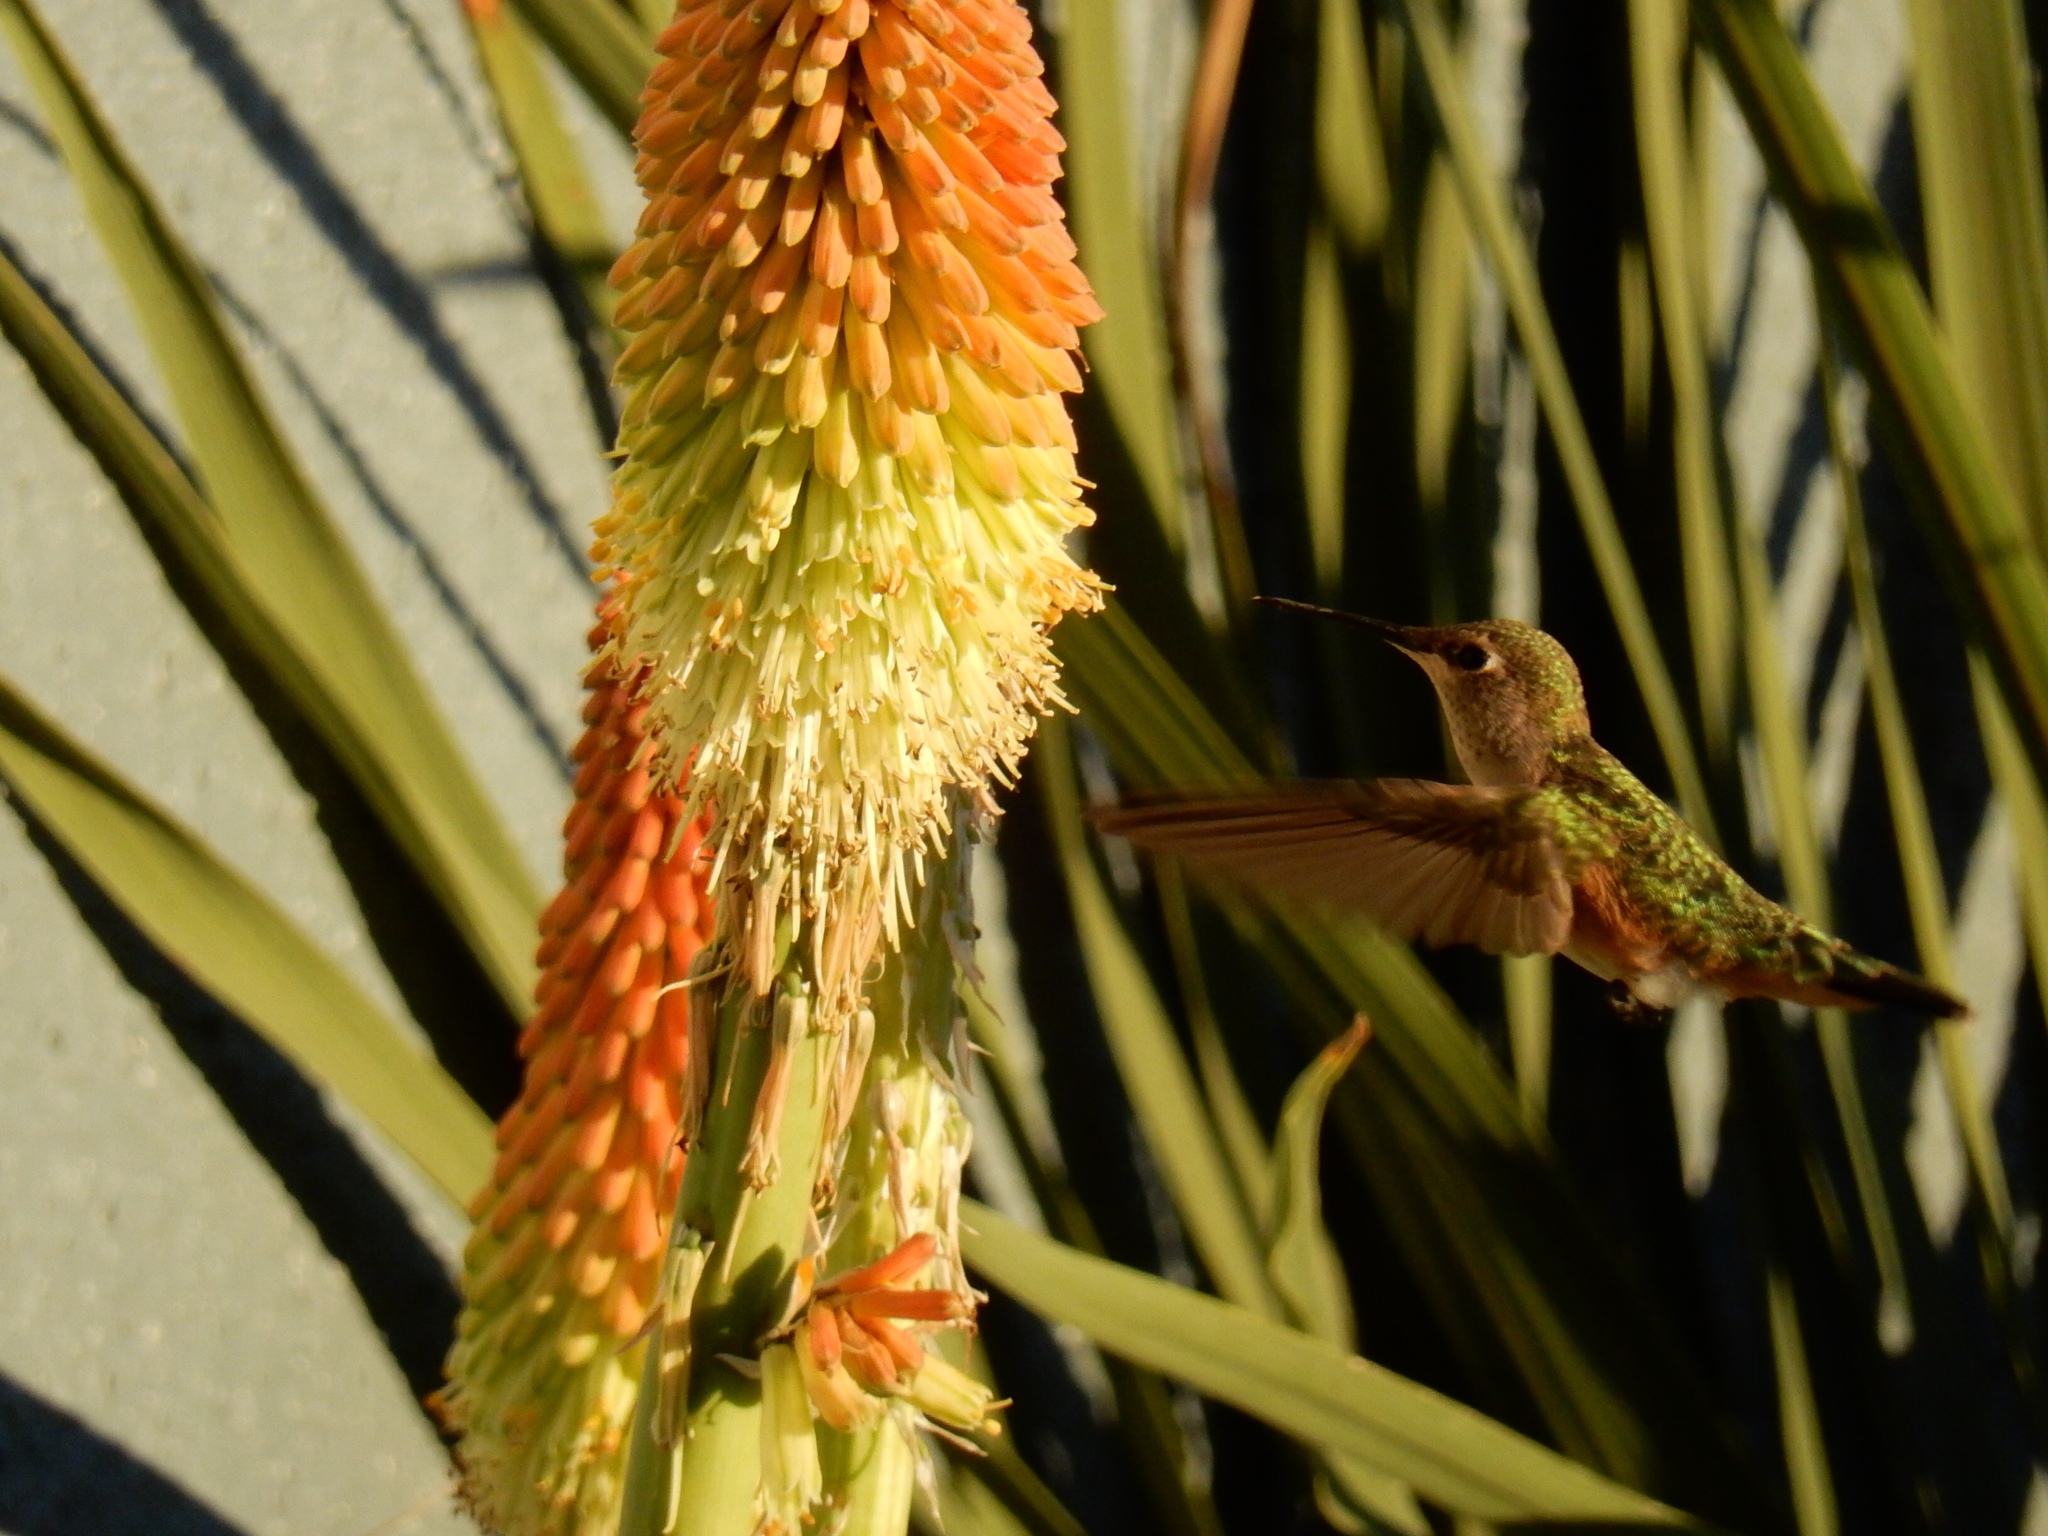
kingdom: Animalia
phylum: Chordata
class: Aves
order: Apodiformes
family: Trochilidae
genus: Selasphorus
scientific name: Selasphorus platycercus
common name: Broad-tailed hummingbird
